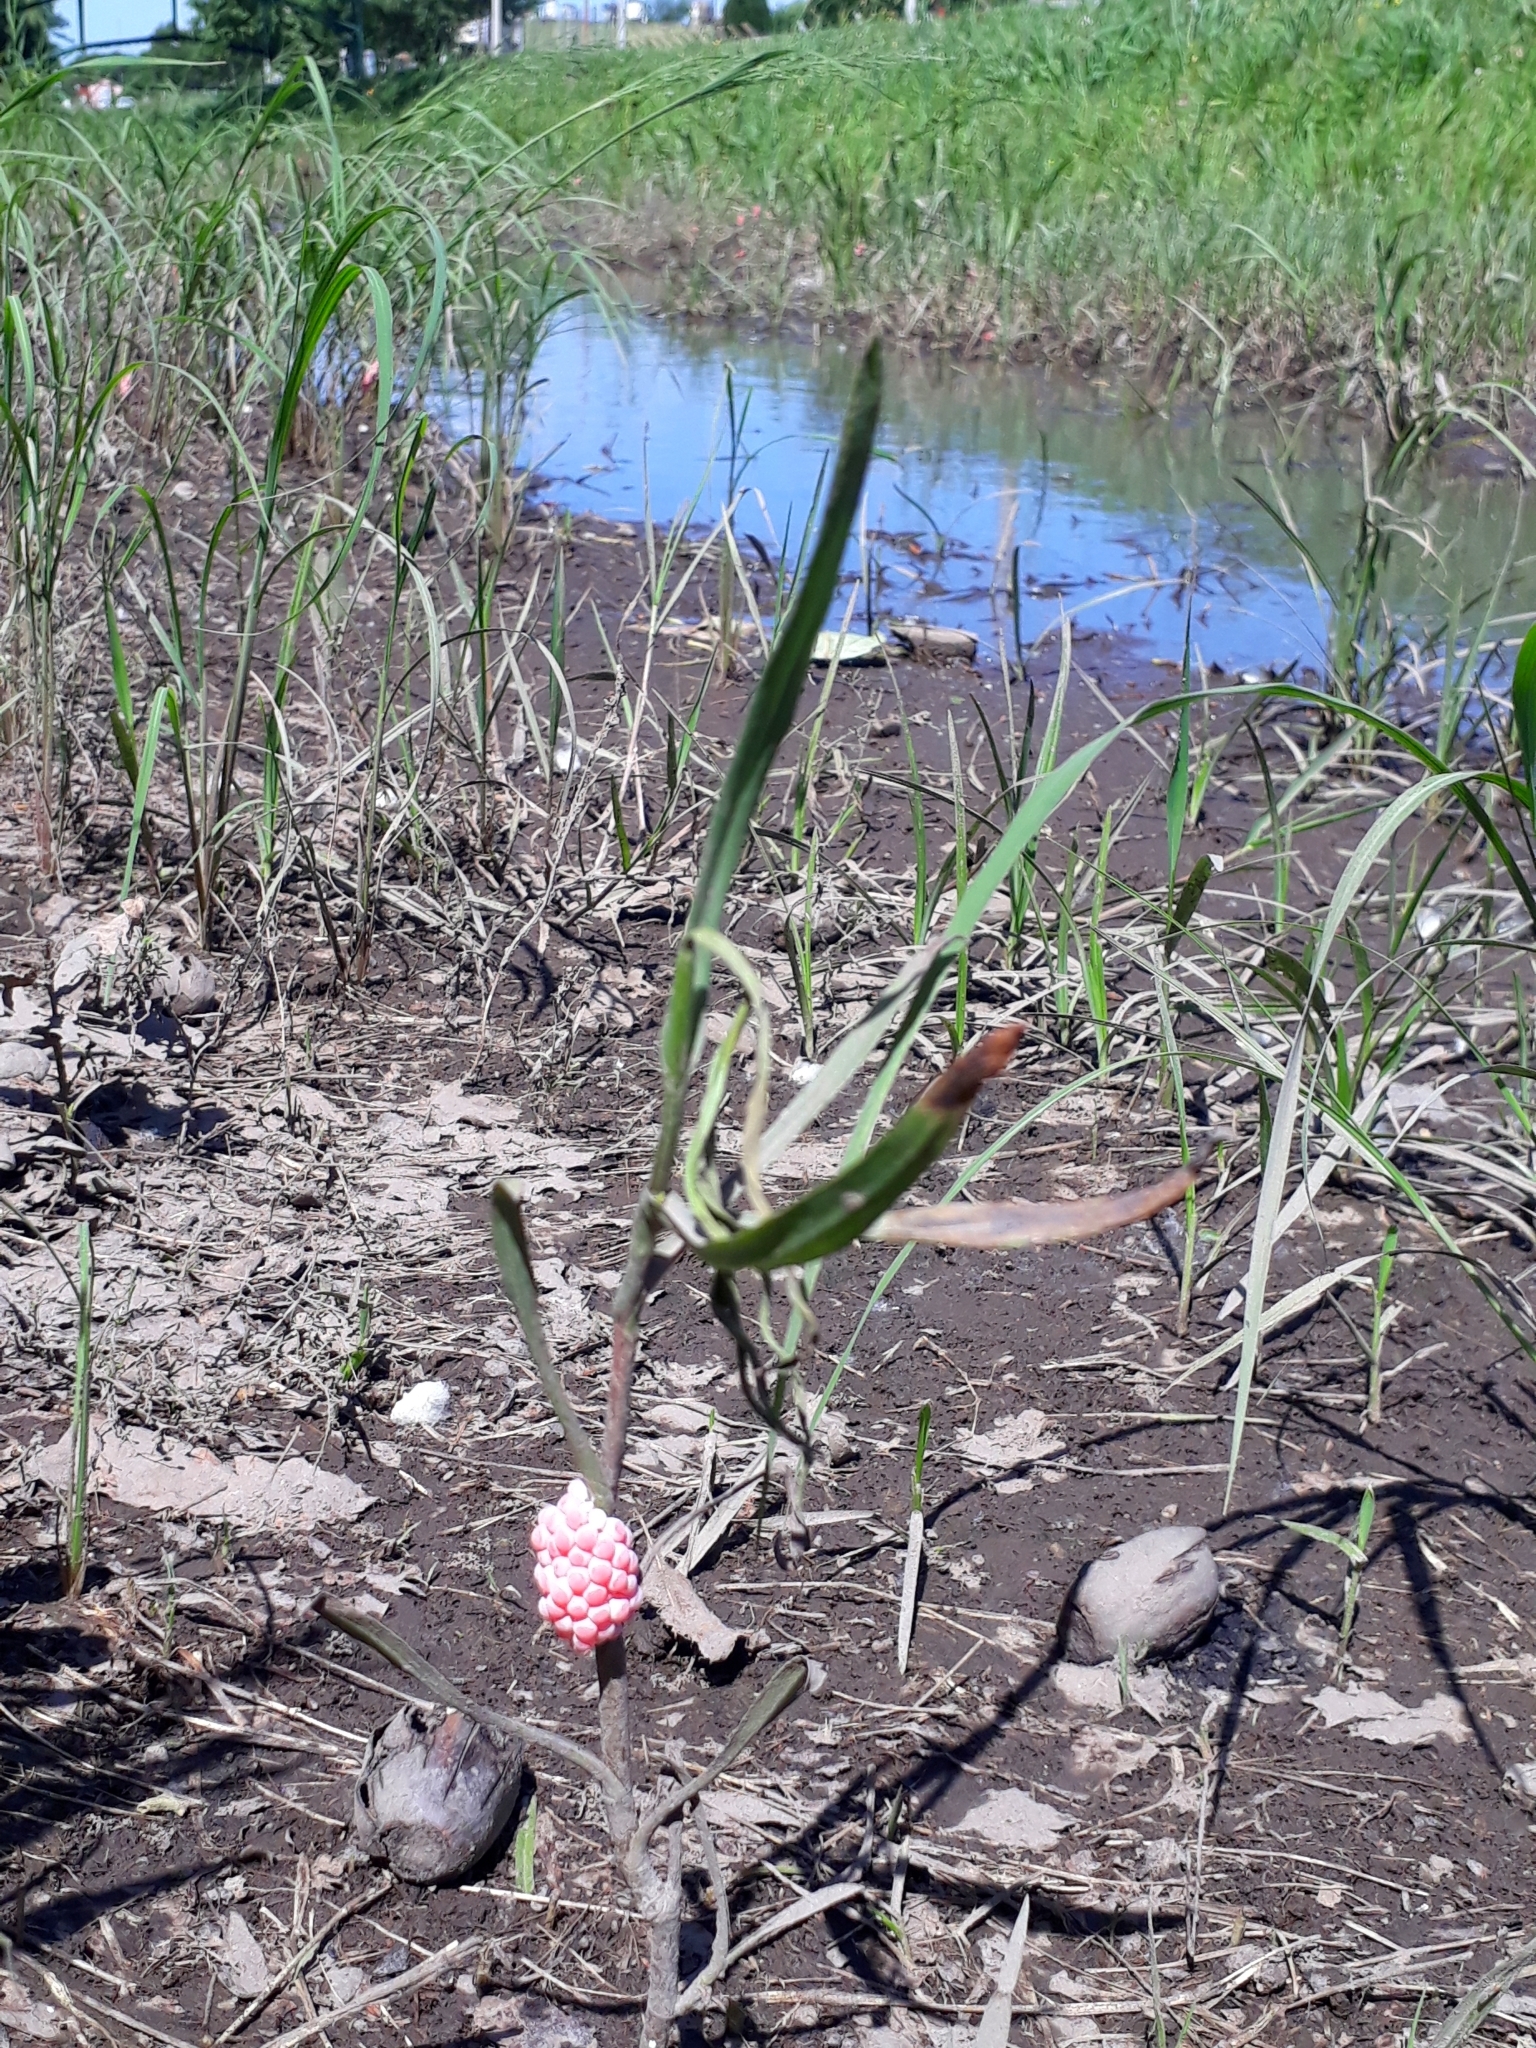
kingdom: Animalia
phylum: Mollusca
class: Gastropoda
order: Architaenioglossa
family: Ampullariidae
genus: Pomacea
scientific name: Pomacea maculata
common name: Giant applesnail
